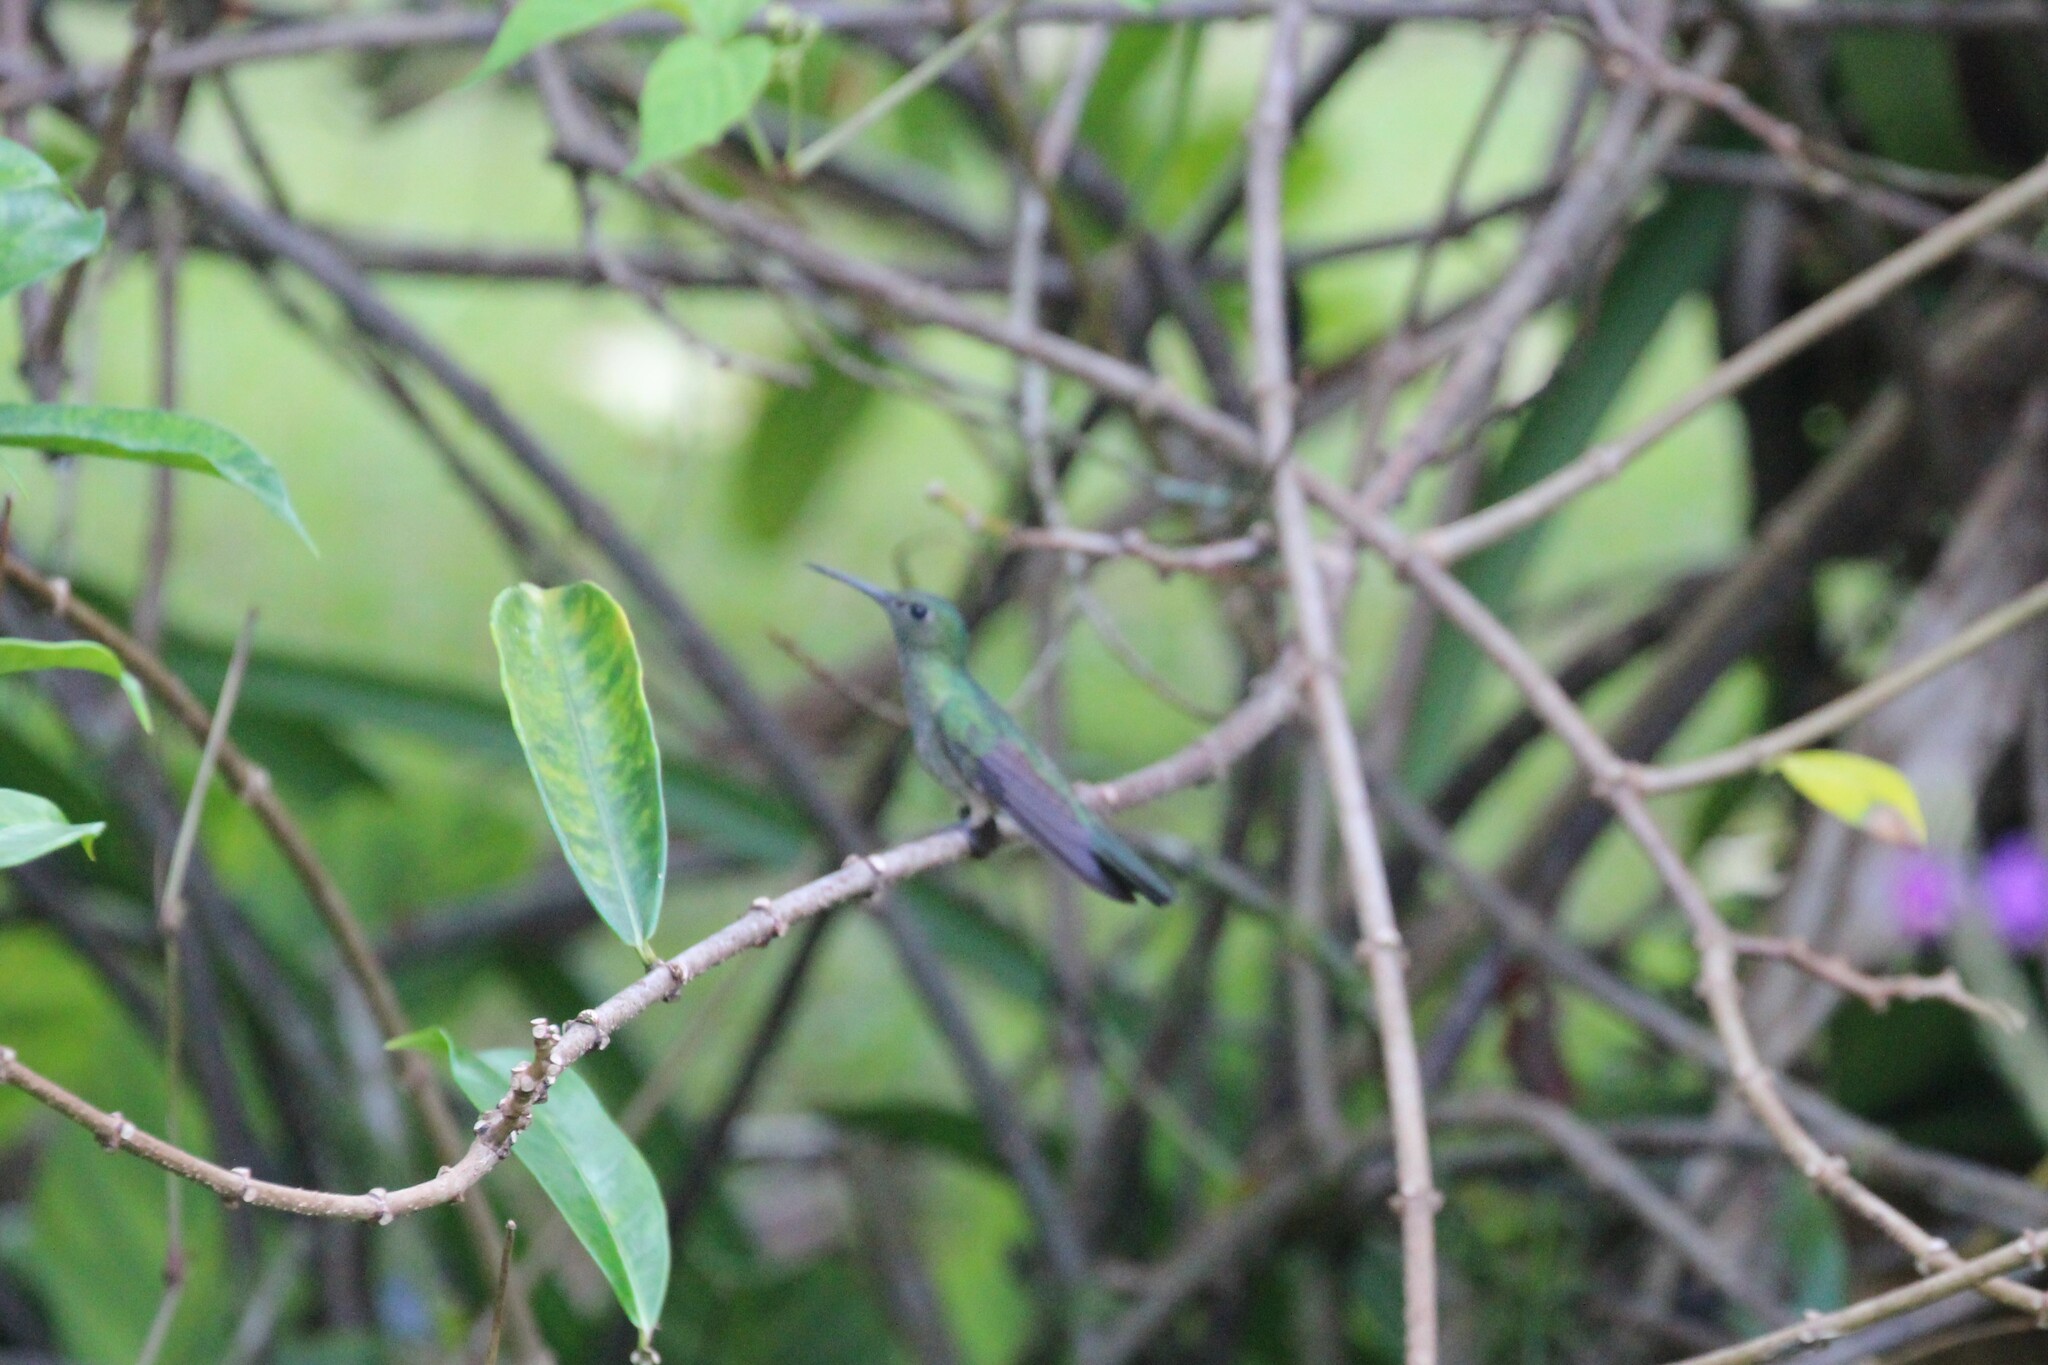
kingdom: Animalia
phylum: Chordata
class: Aves
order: Apodiformes
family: Trochilidae
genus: Phaeochroa
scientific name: Phaeochroa cuvierii
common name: Scaly-breasted hummingbird
